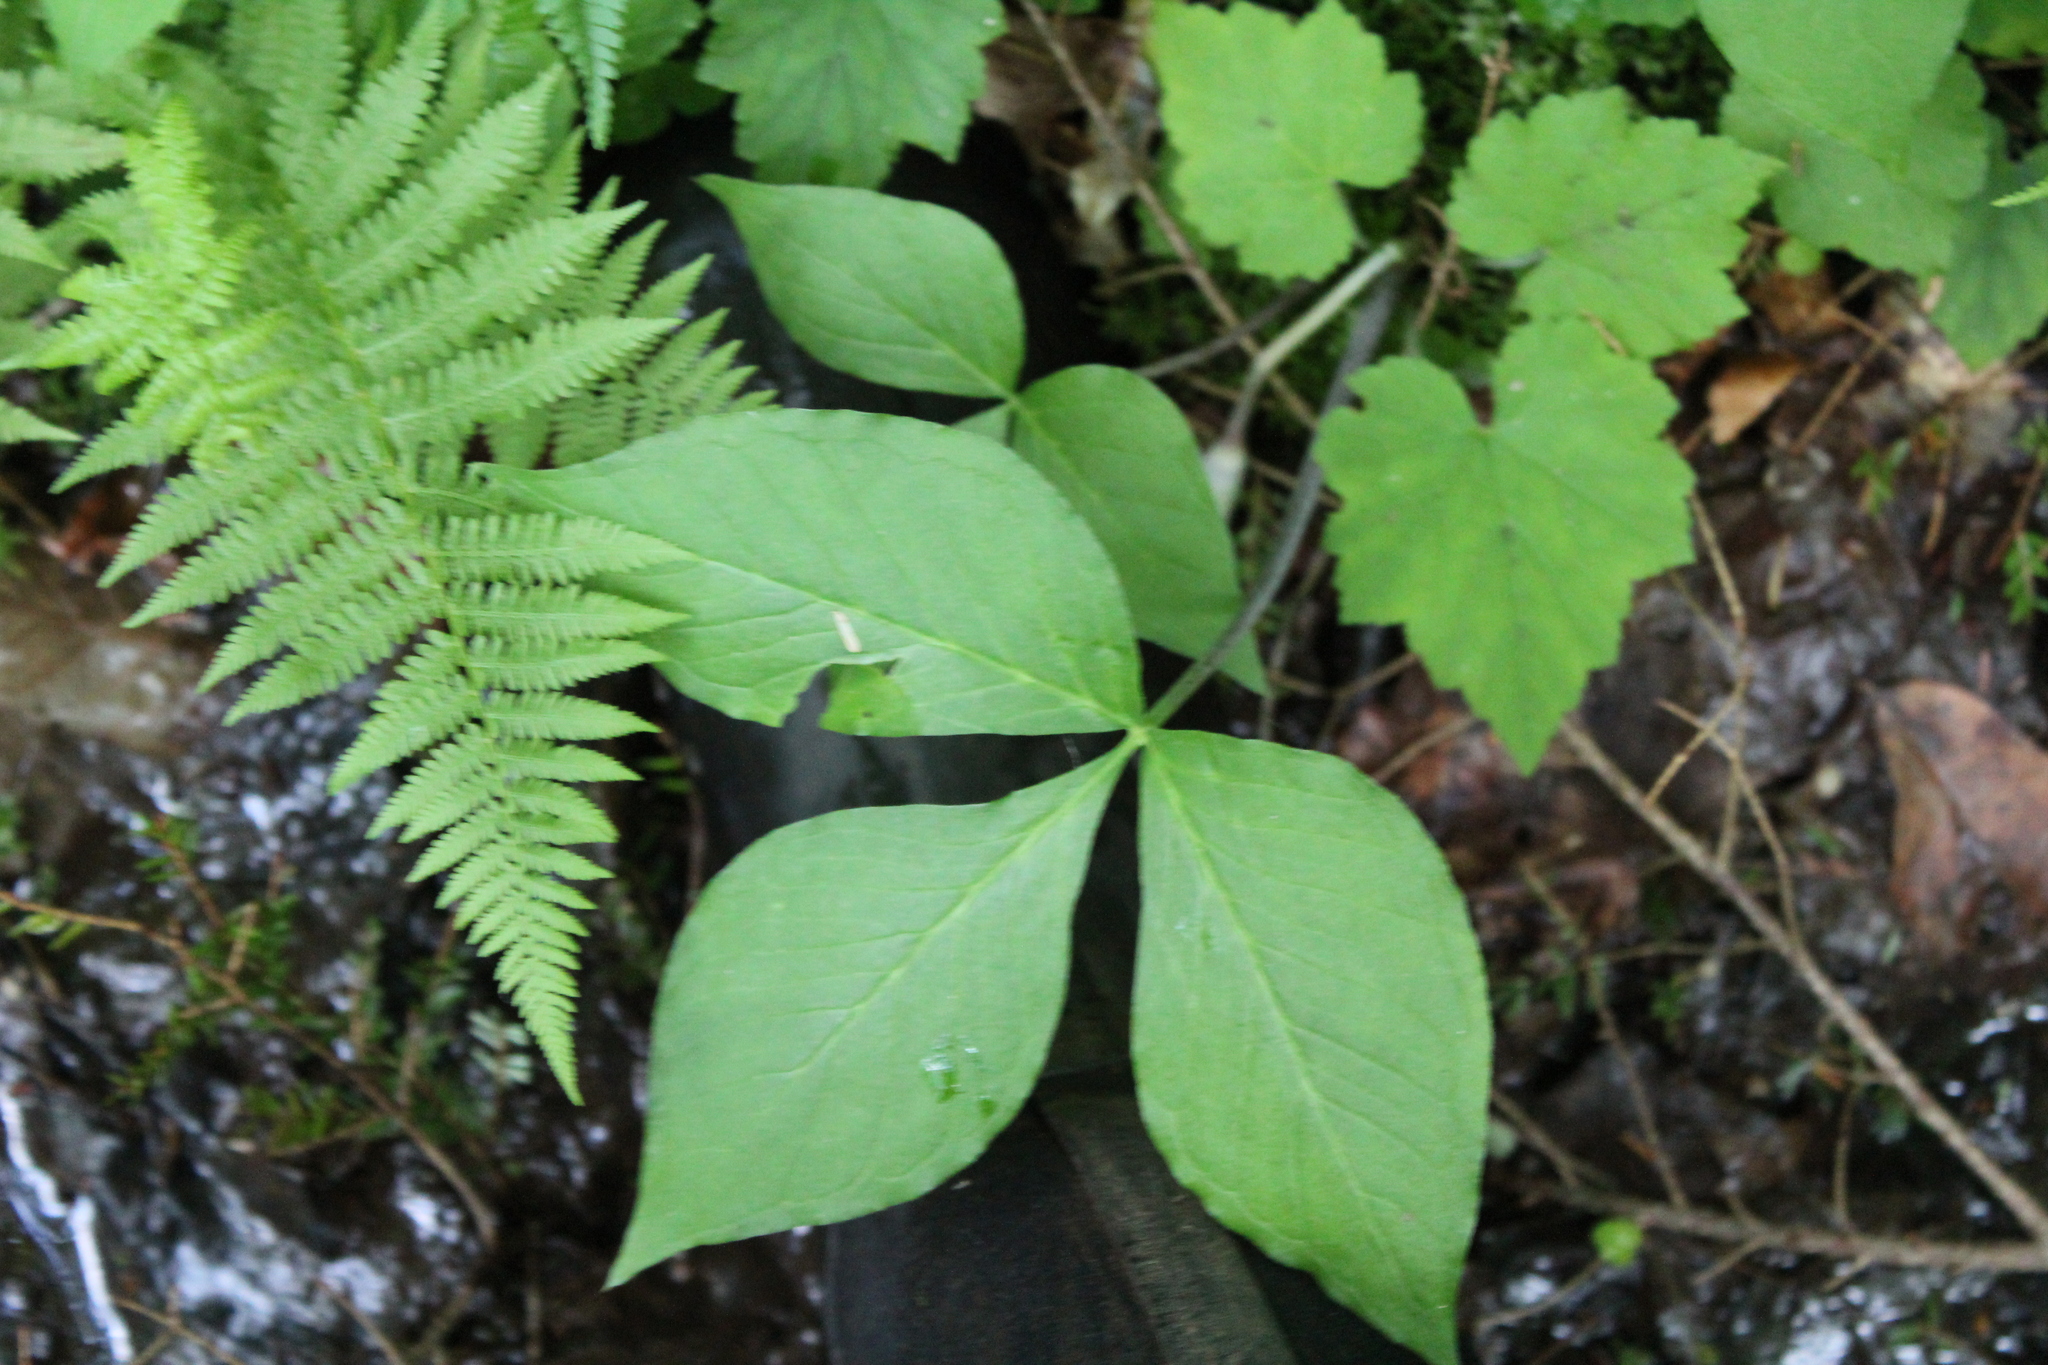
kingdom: Plantae
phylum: Tracheophyta
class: Liliopsida
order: Alismatales
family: Araceae
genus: Arisaema
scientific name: Arisaema triphyllum
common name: Jack-in-the-pulpit
